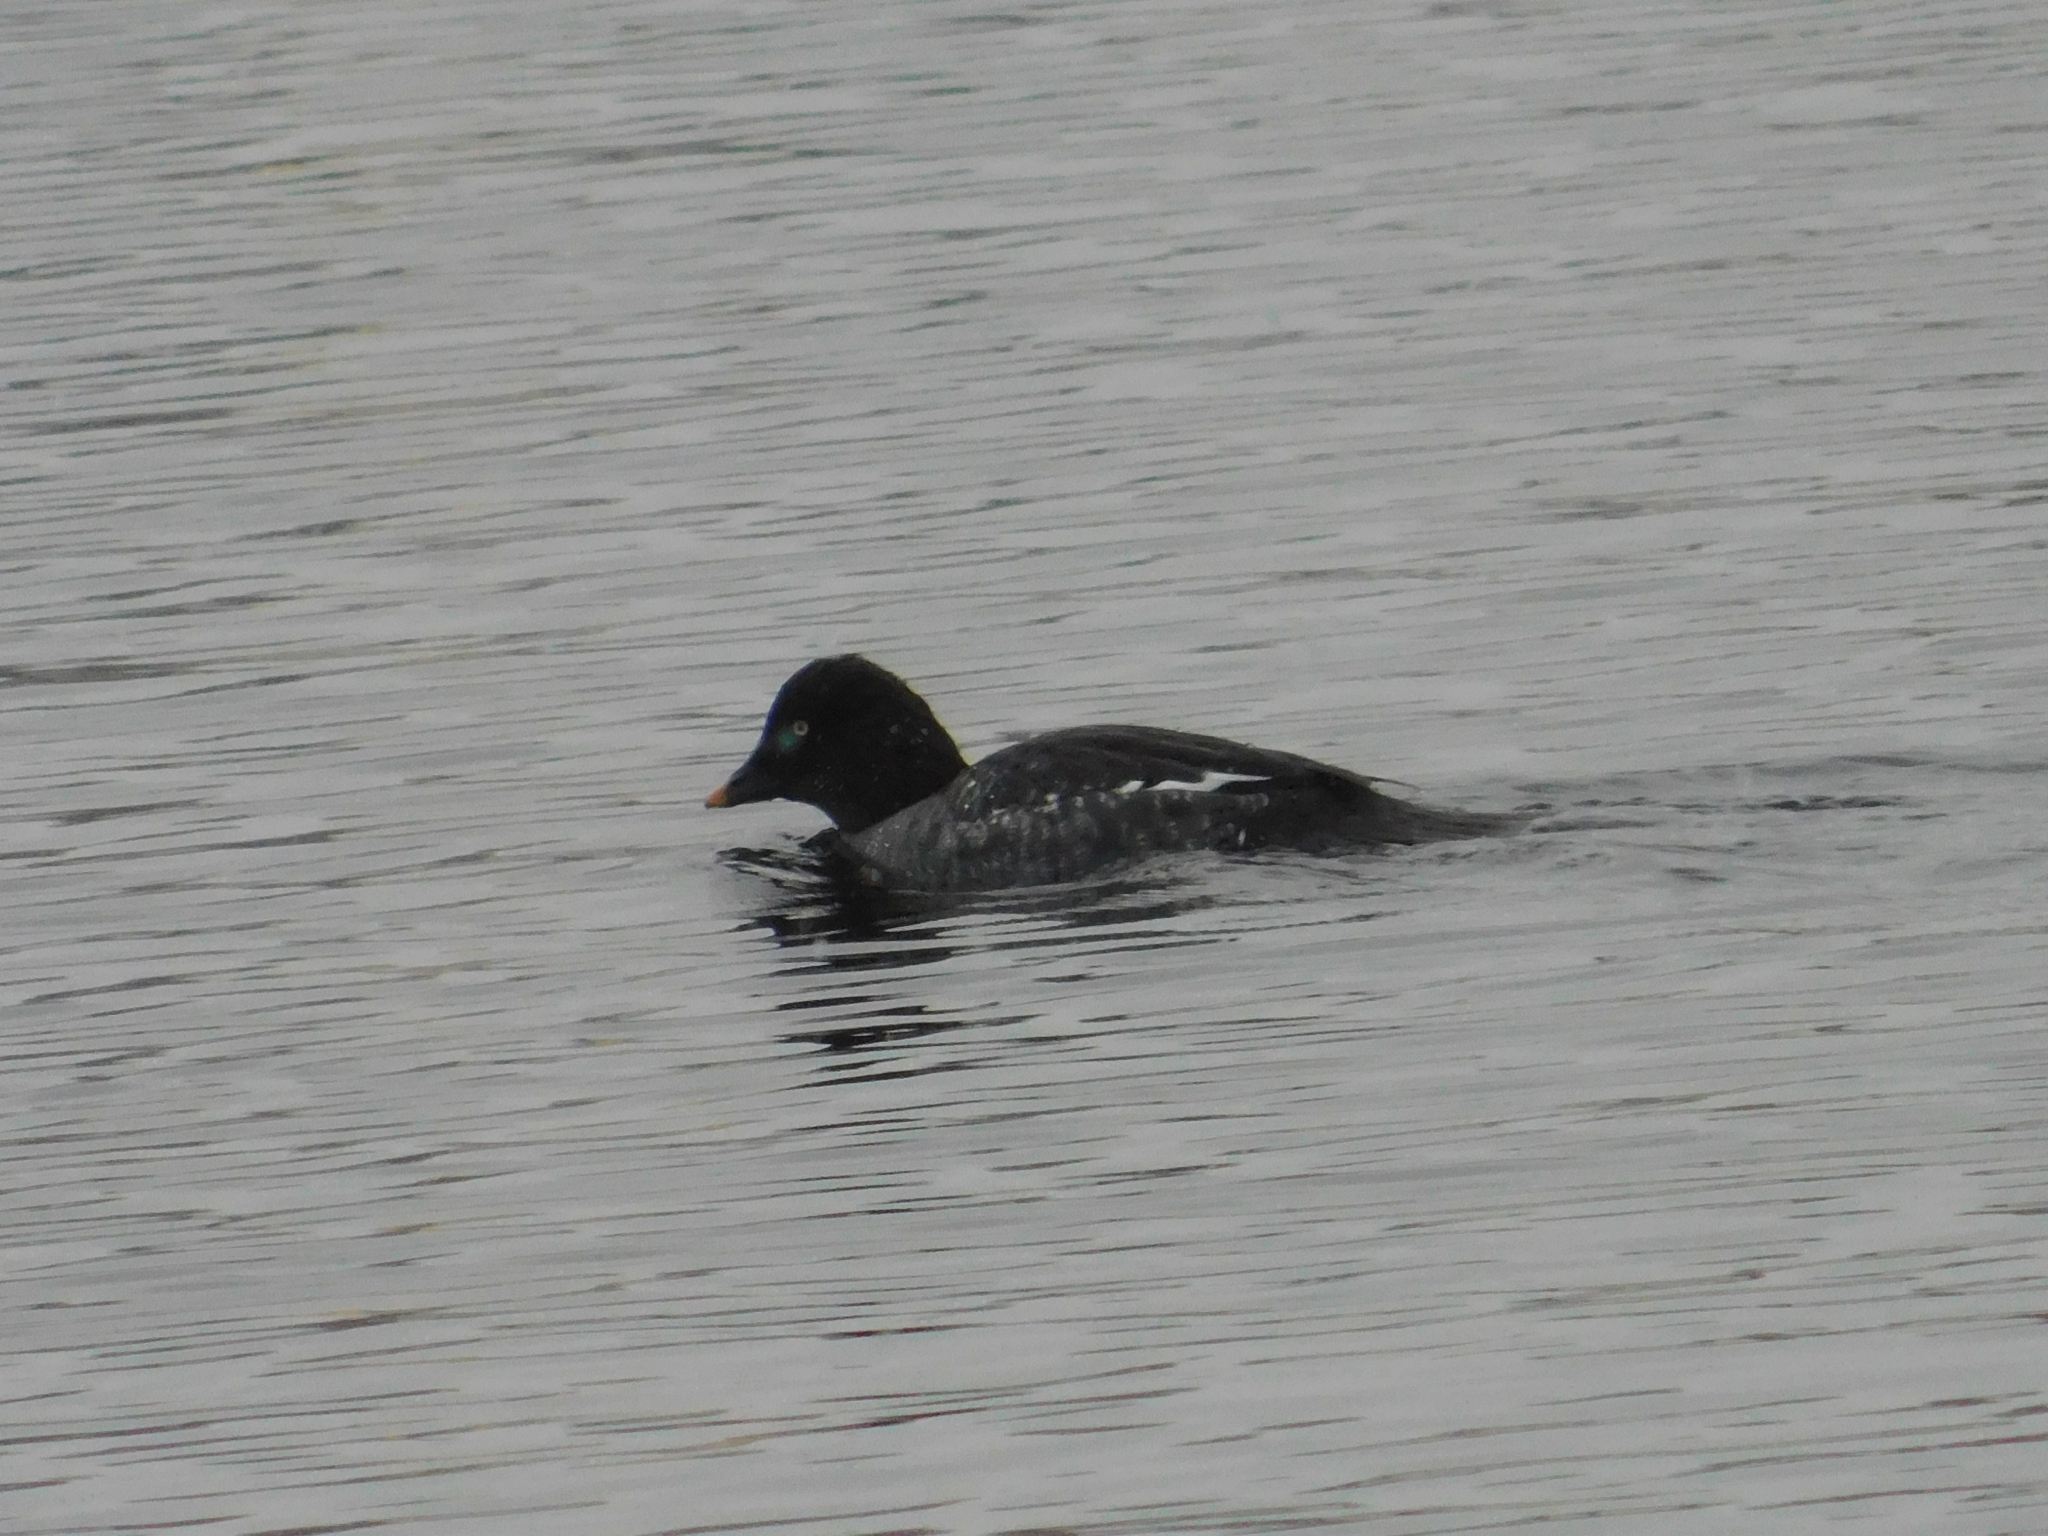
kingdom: Animalia
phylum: Chordata
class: Aves
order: Anseriformes
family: Anatidae
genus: Bucephala
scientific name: Bucephala clangula
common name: Common goldeneye
